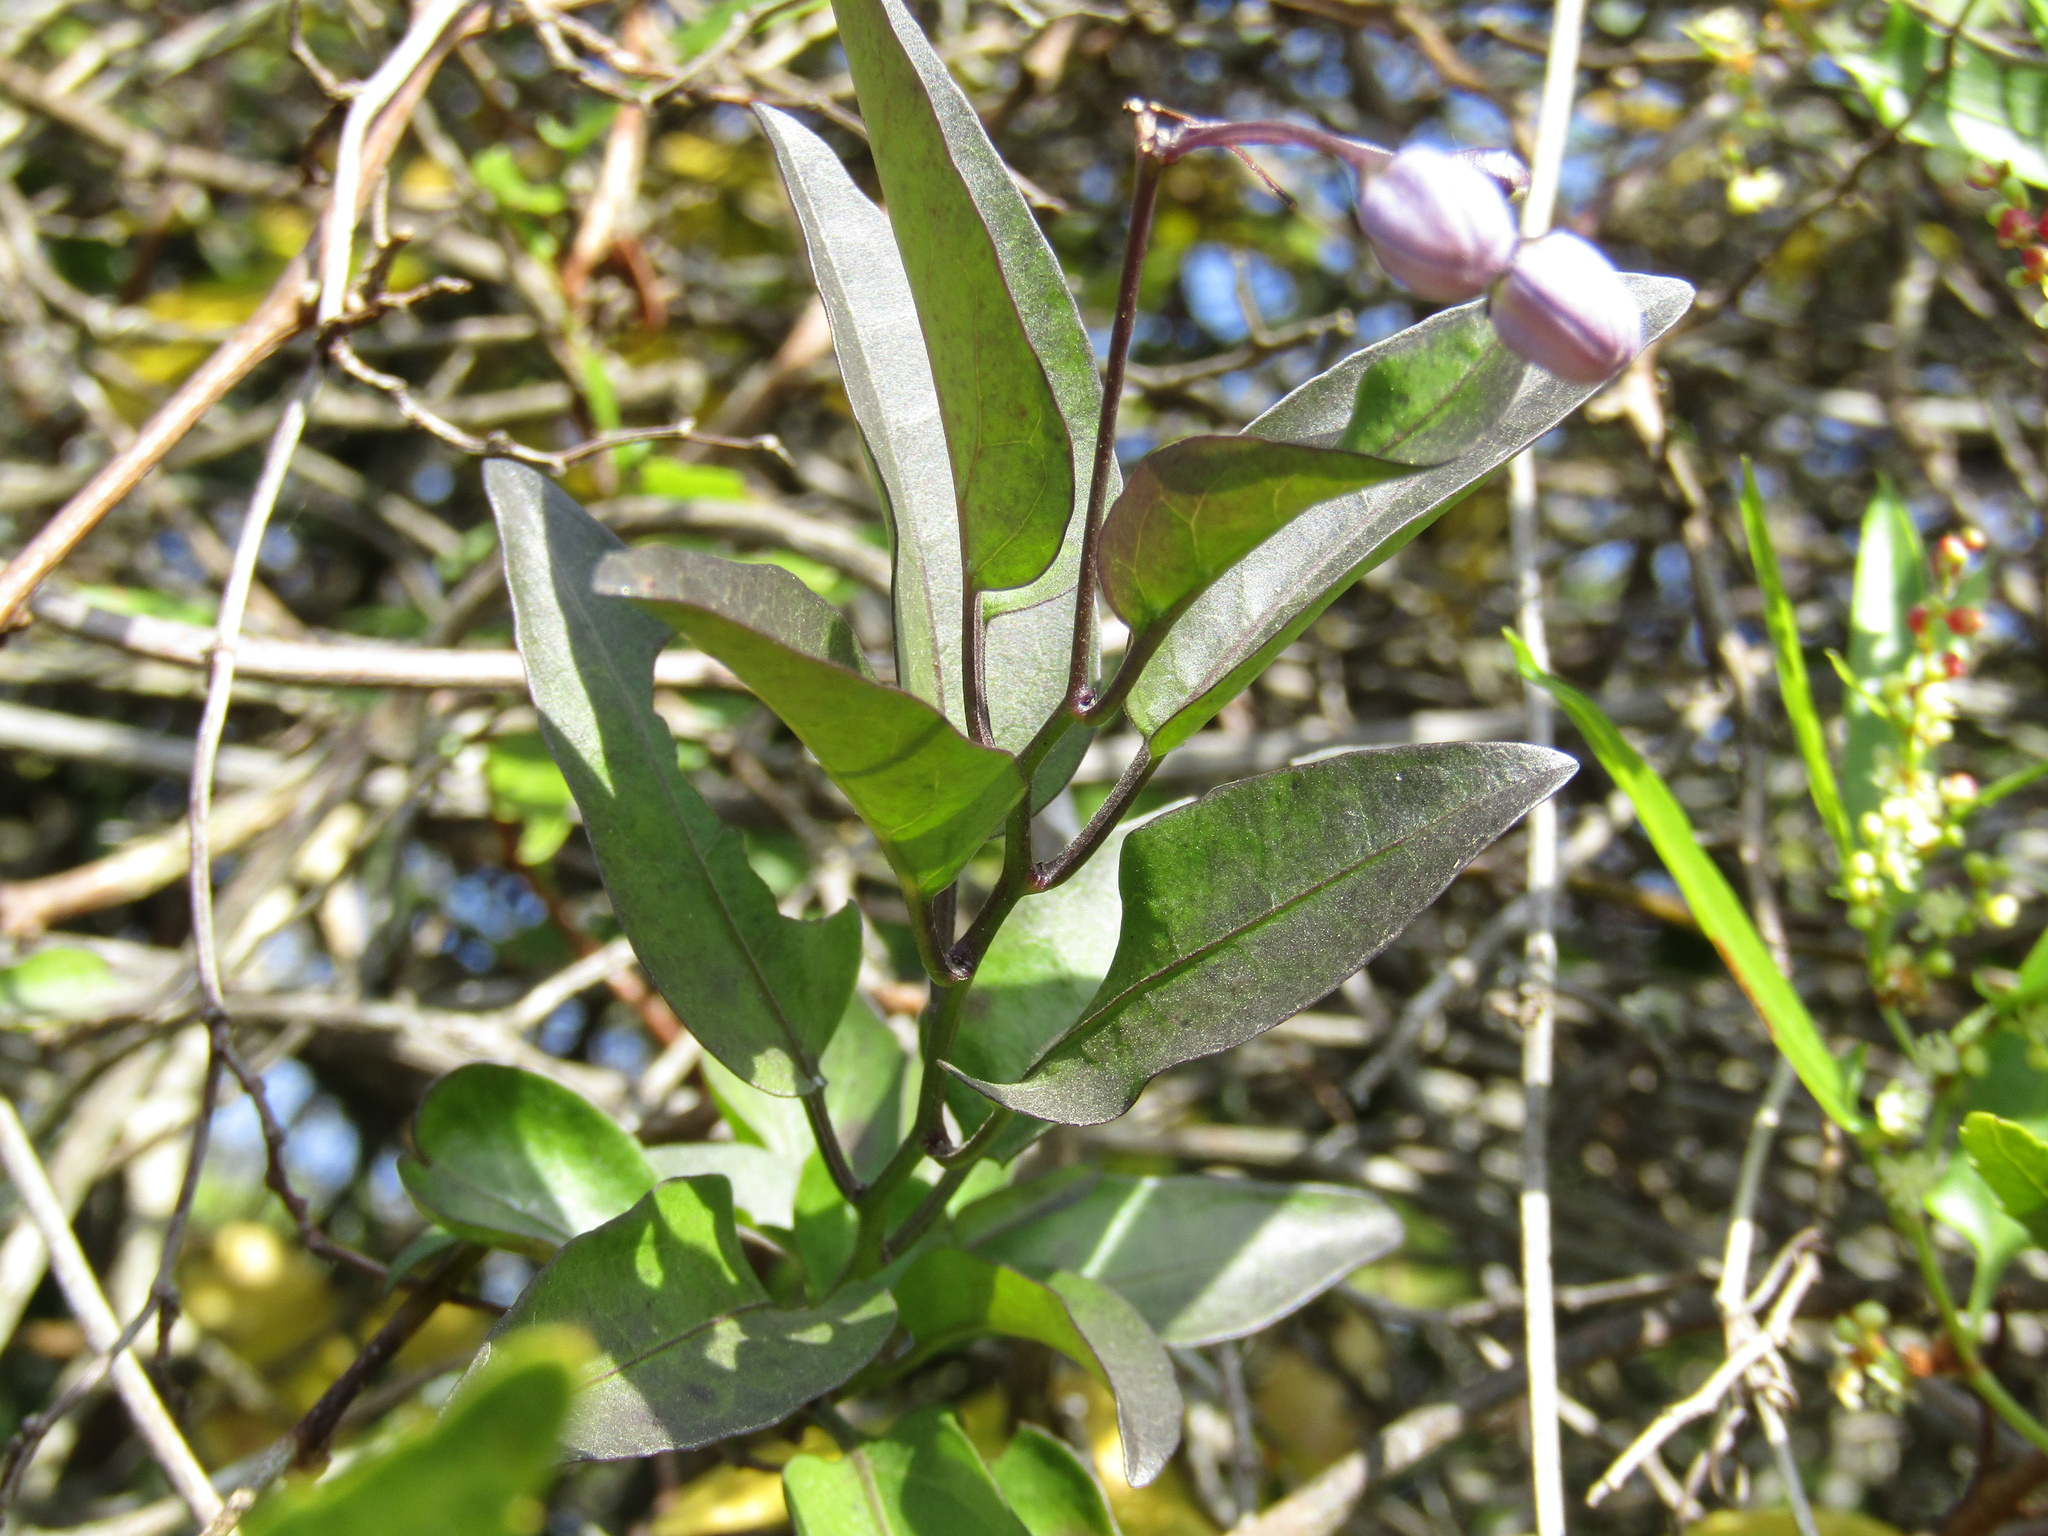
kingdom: Plantae
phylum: Tracheophyta
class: Magnoliopsida
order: Solanales
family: Solanaceae
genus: Solanum
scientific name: Solanum laxum
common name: Nightshade
